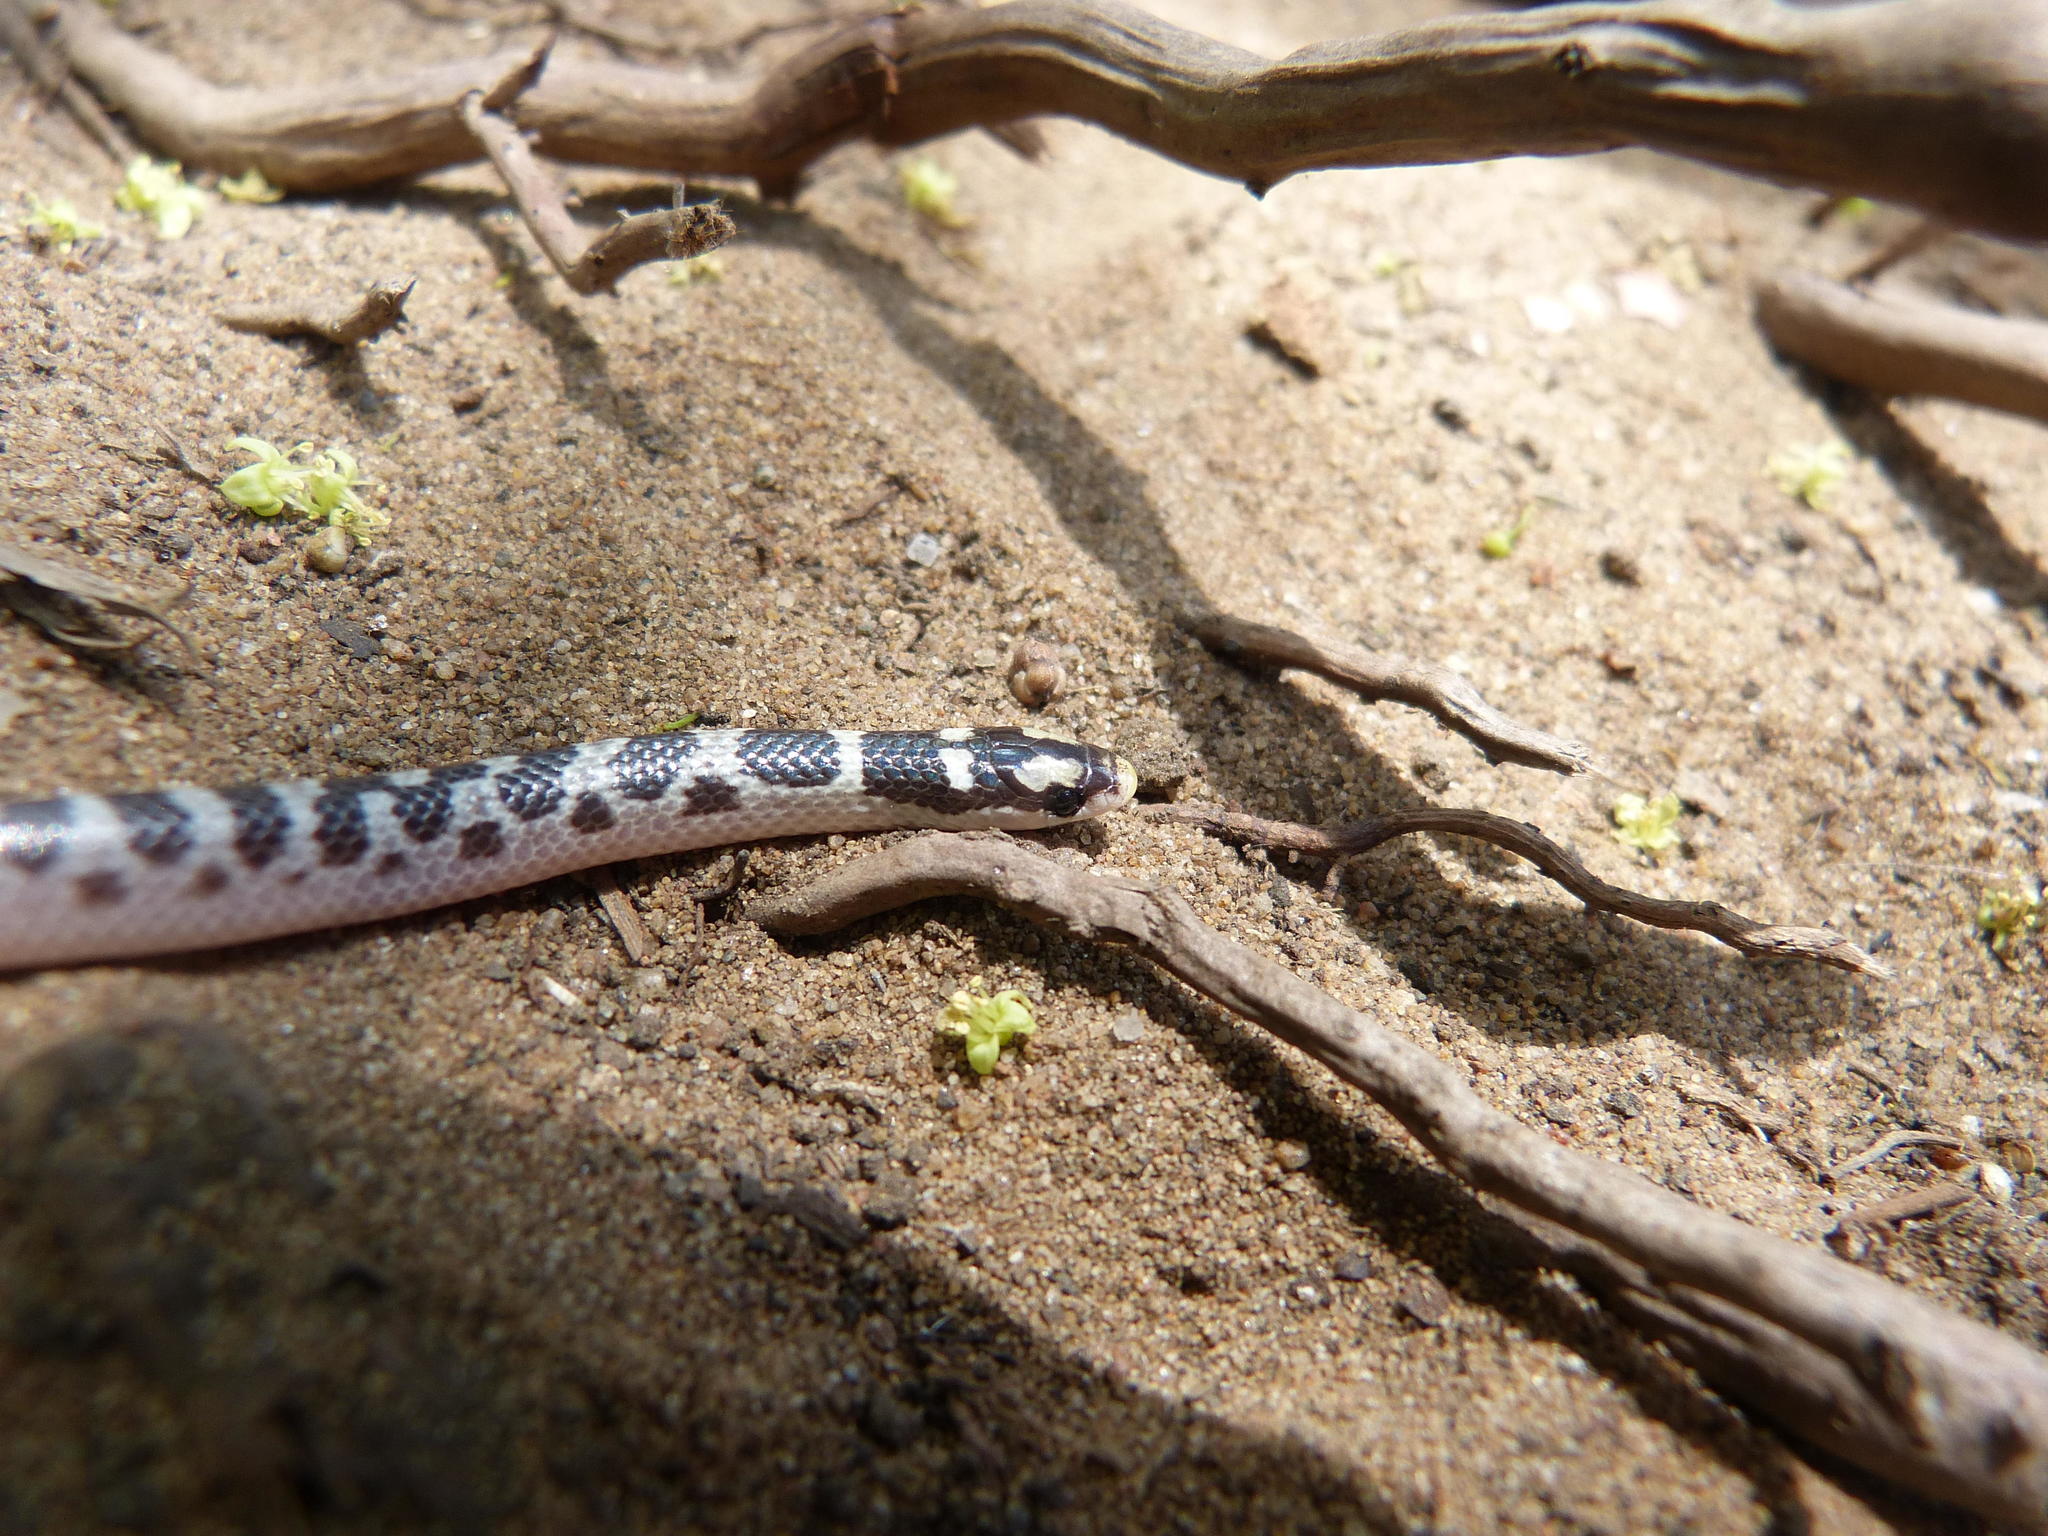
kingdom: Animalia
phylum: Chordata
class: Squamata
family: Prosymnidae
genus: Prosymna
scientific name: Prosymna janii
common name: Mozambique shovel-snout
